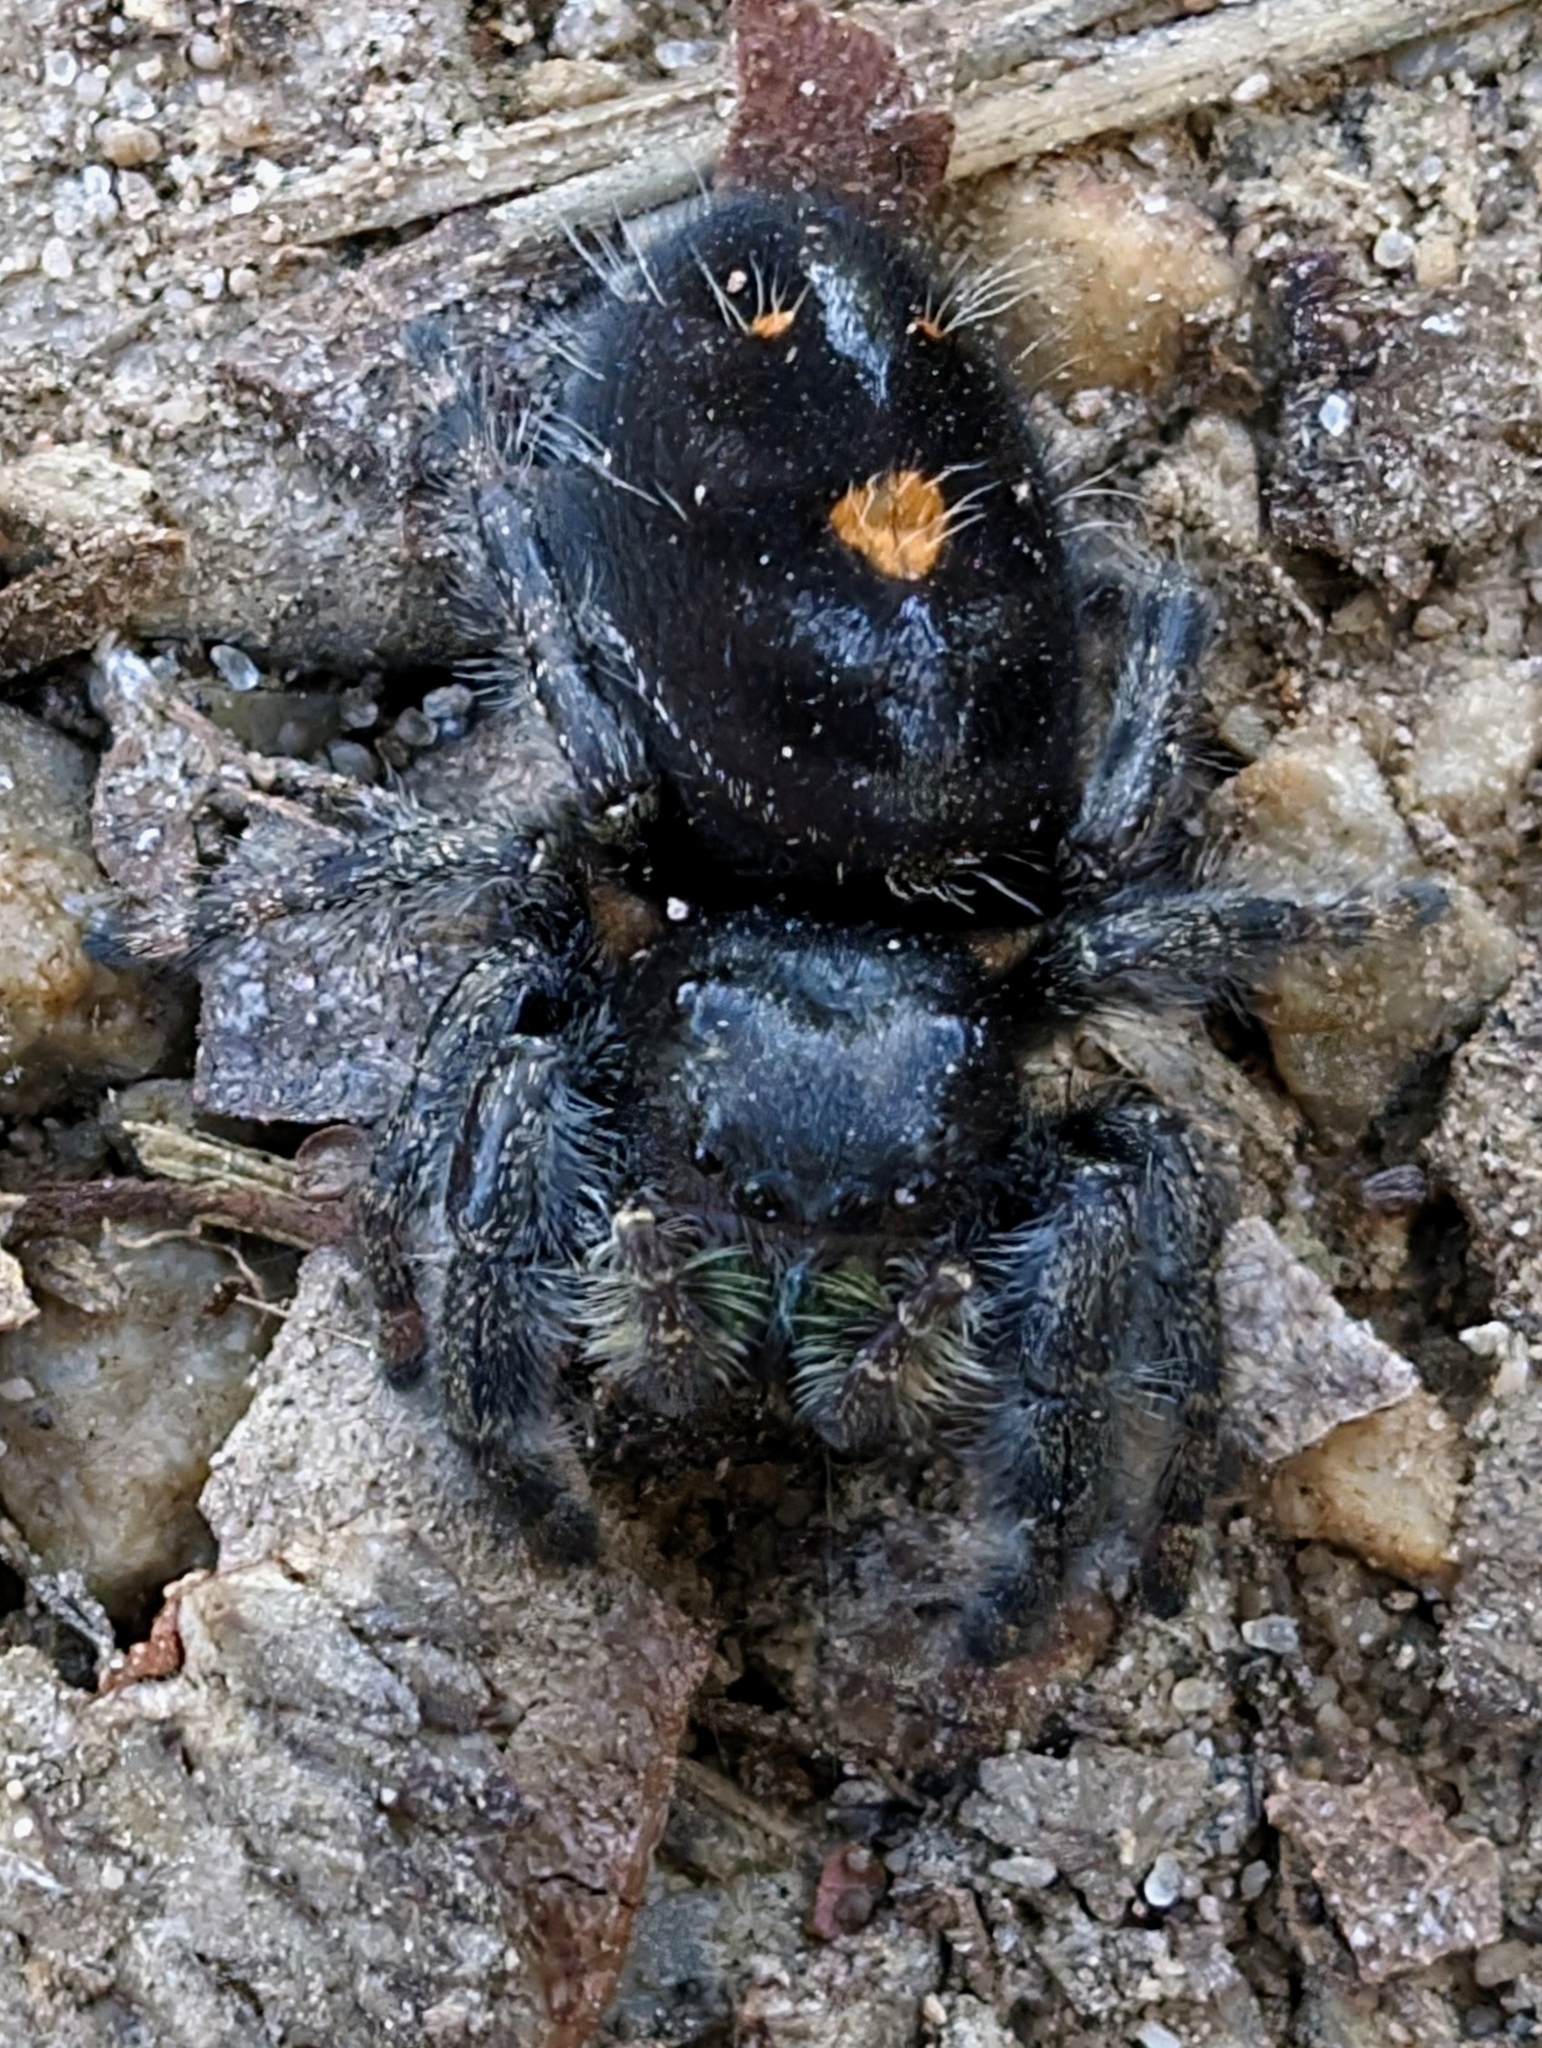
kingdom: Animalia
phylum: Arthropoda
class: Arachnida
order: Araneae
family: Salticidae
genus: Phidippus
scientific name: Phidippus audax
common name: Bold jumper
